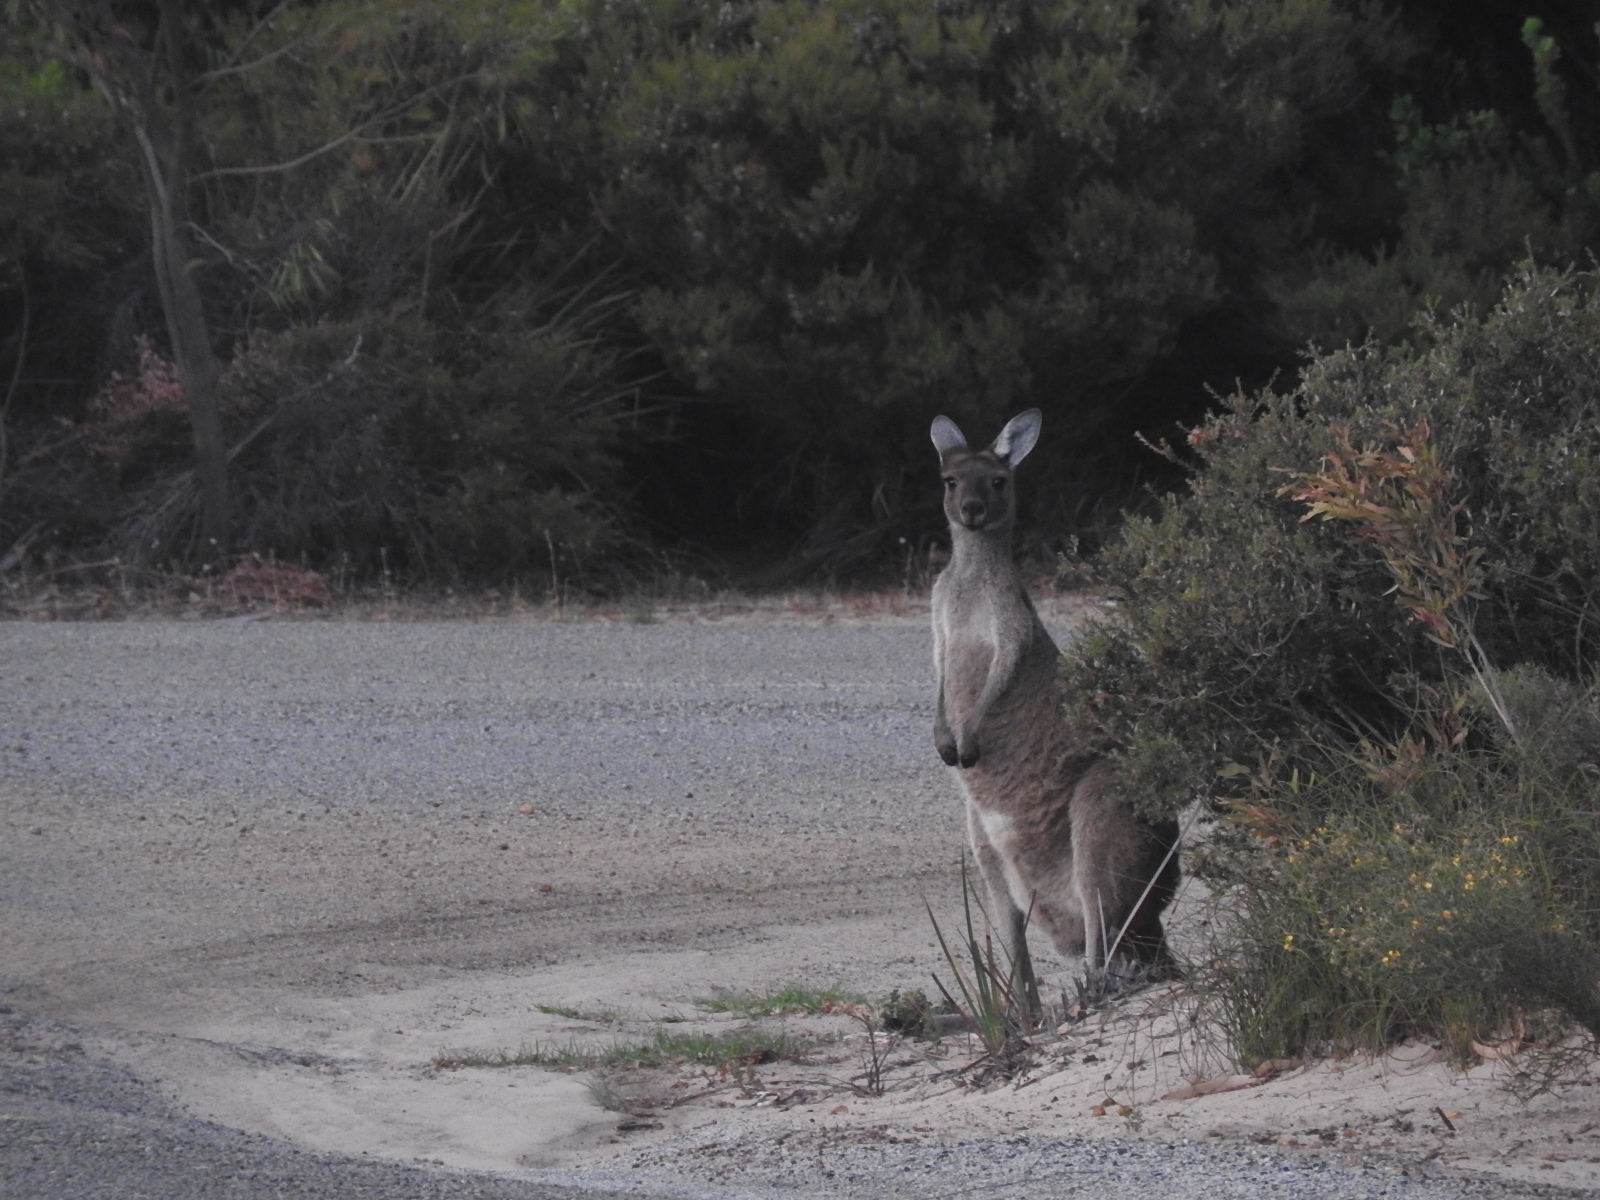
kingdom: Animalia
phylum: Chordata
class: Mammalia
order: Diprotodontia
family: Macropodidae
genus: Macropus
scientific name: Macropus fuliginosus
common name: Western grey kangaroo
